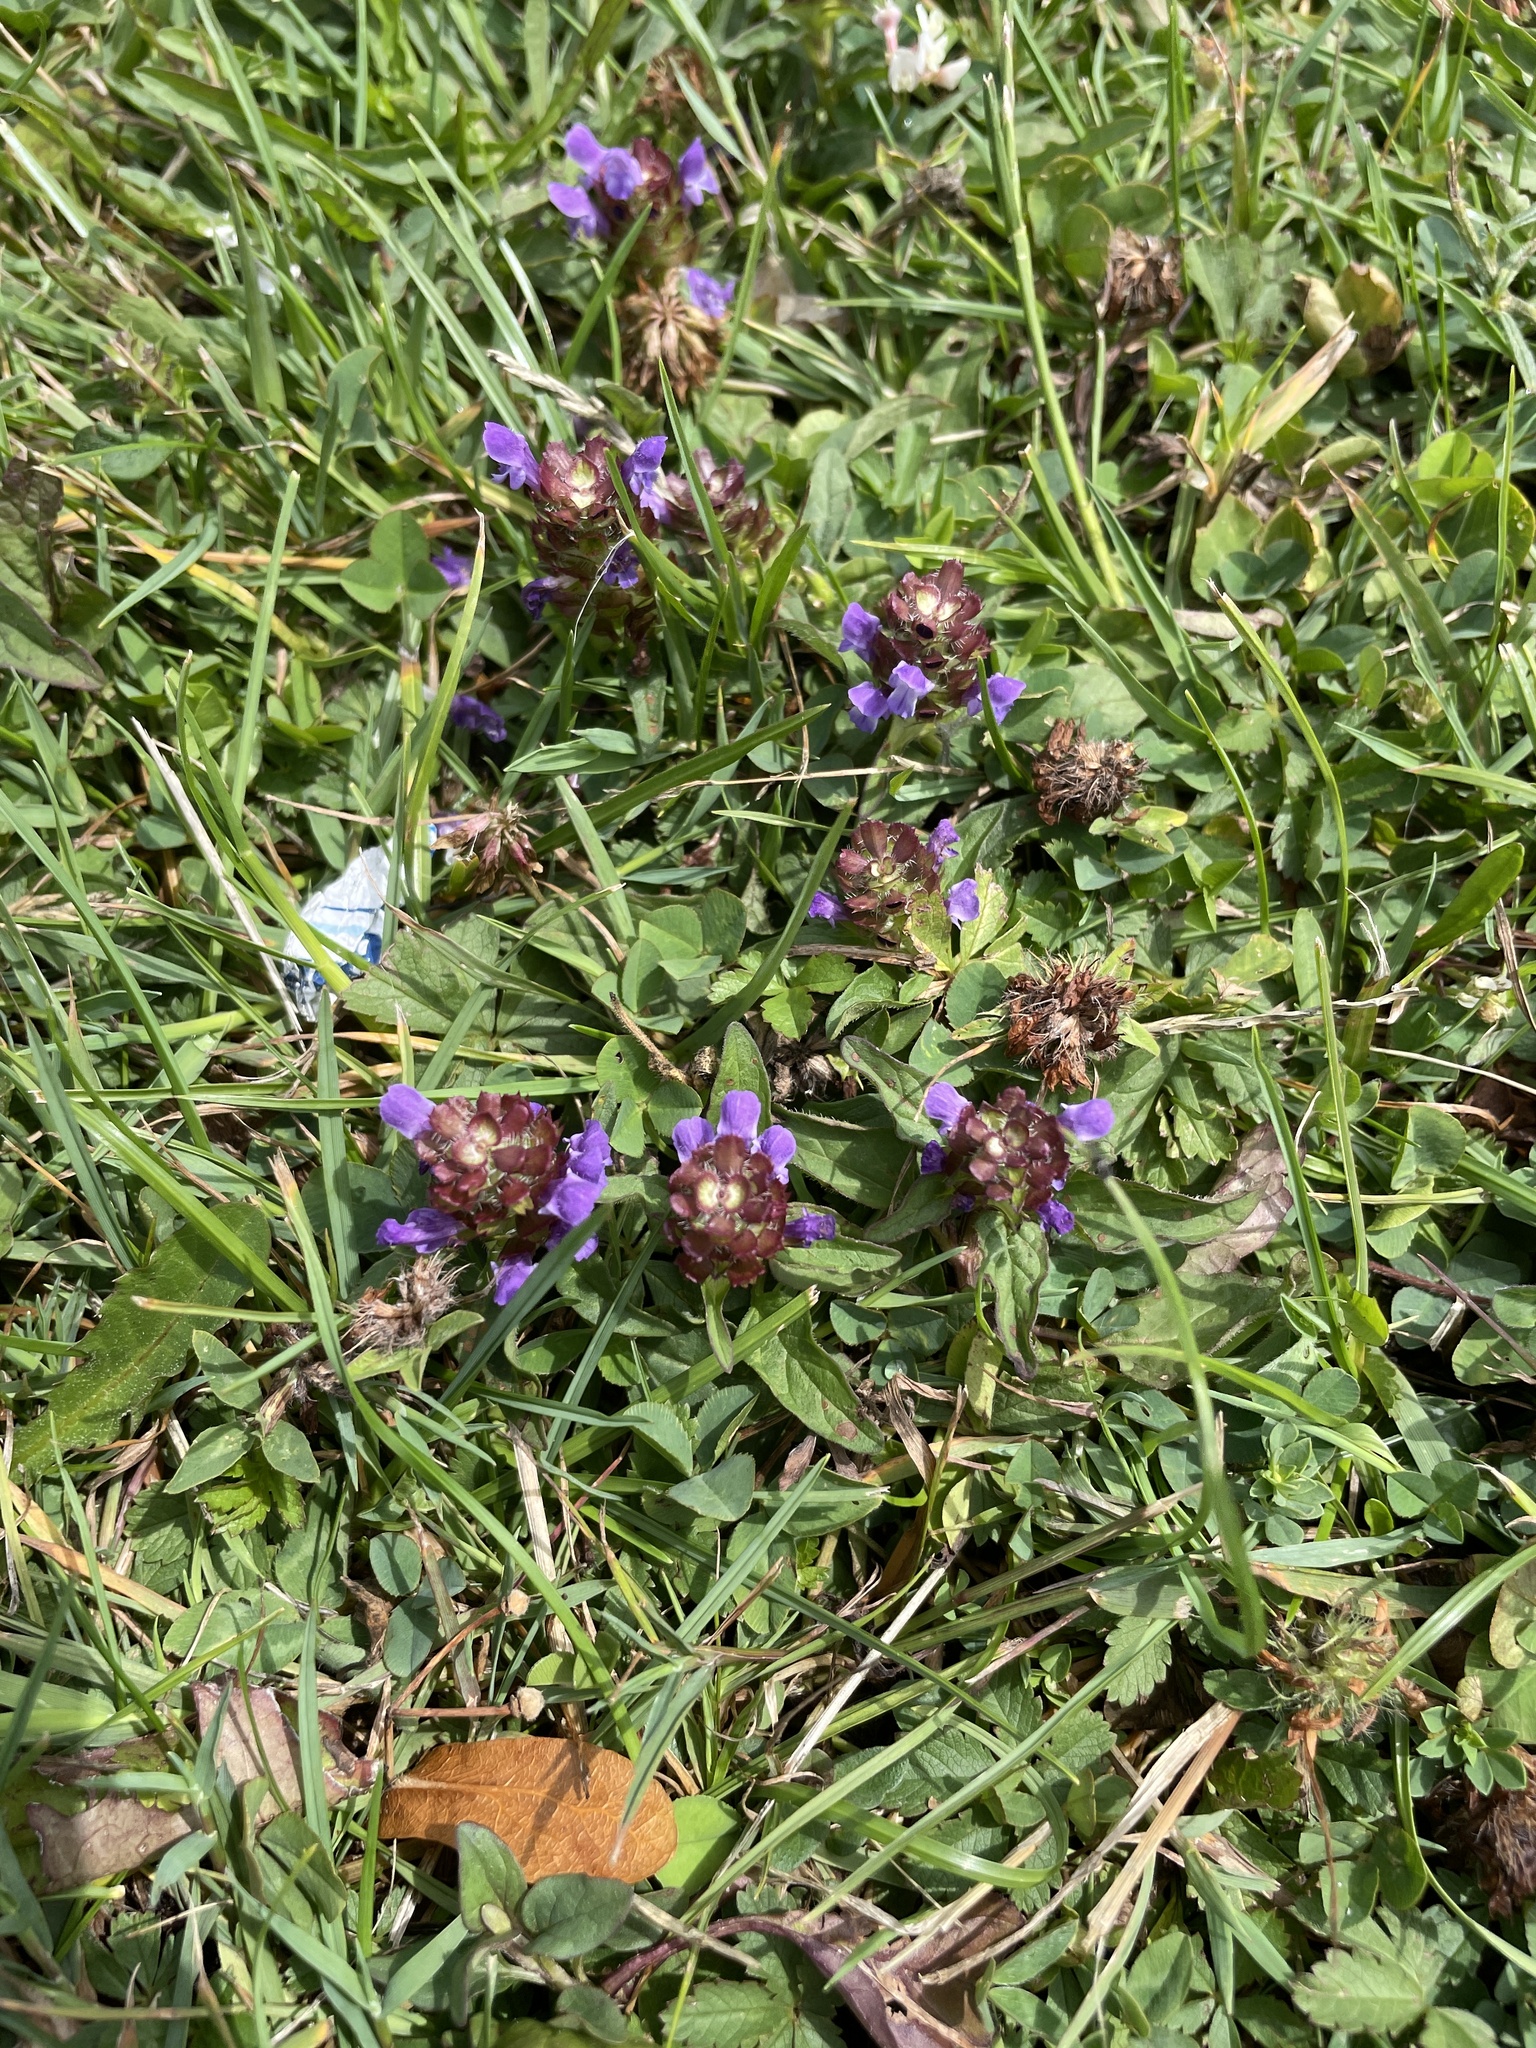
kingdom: Plantae
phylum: Tracheophyta
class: Magnoliopsida
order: Lamiales
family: Lamiaceae
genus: Prunella
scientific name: Prunella vulgaris
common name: Heal-all
